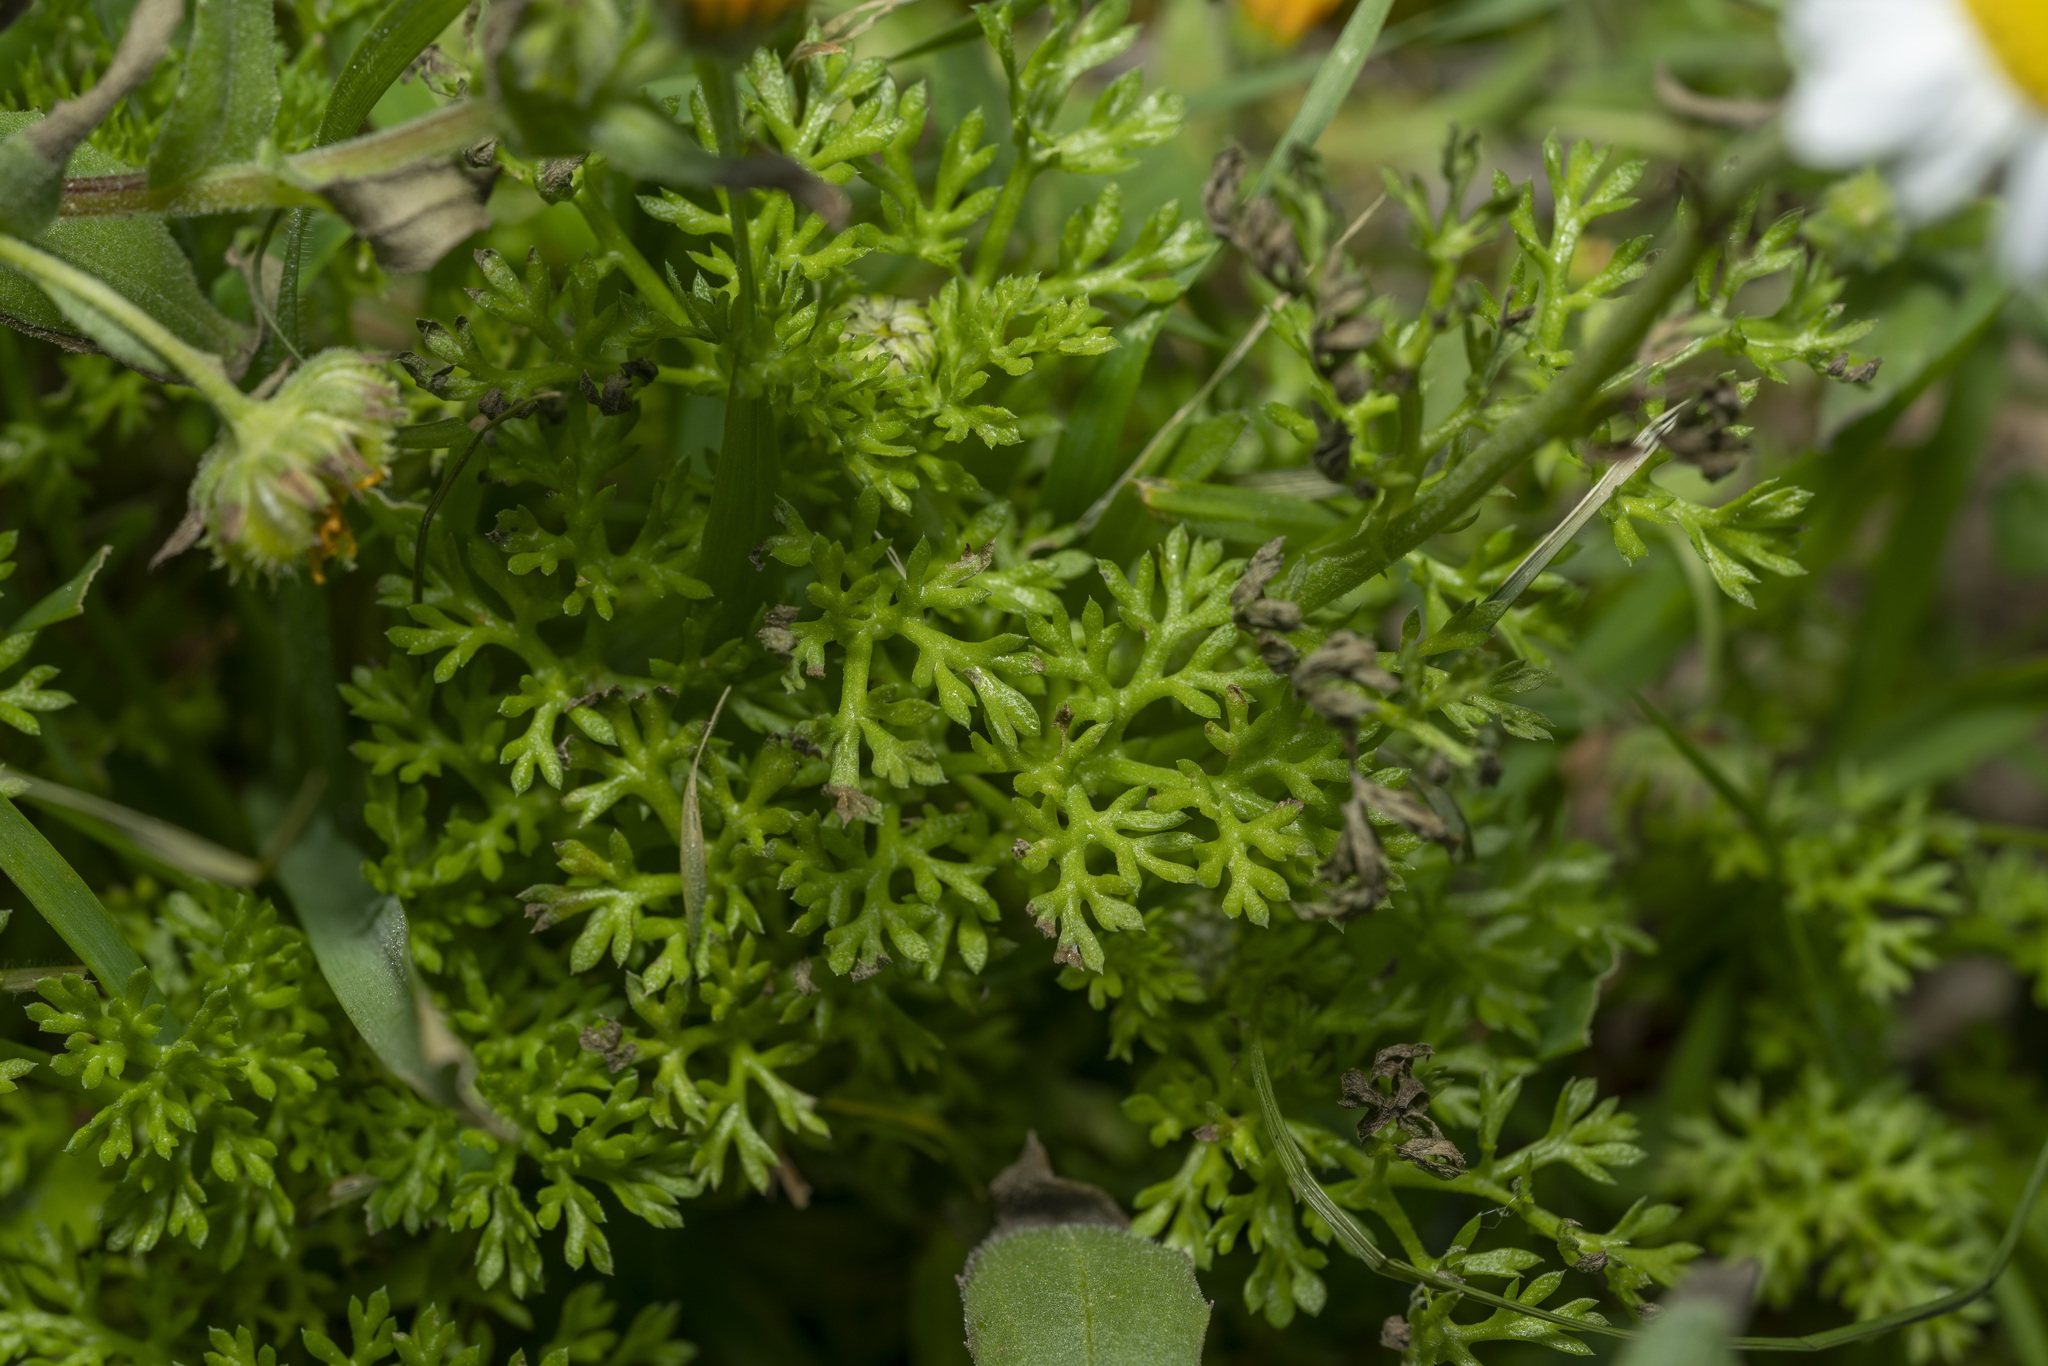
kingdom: Plantae
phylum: Tracheophyta
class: Magnoliopsida
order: Asterales
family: Asteraceae
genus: Anthemis
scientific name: Anthemis chia
